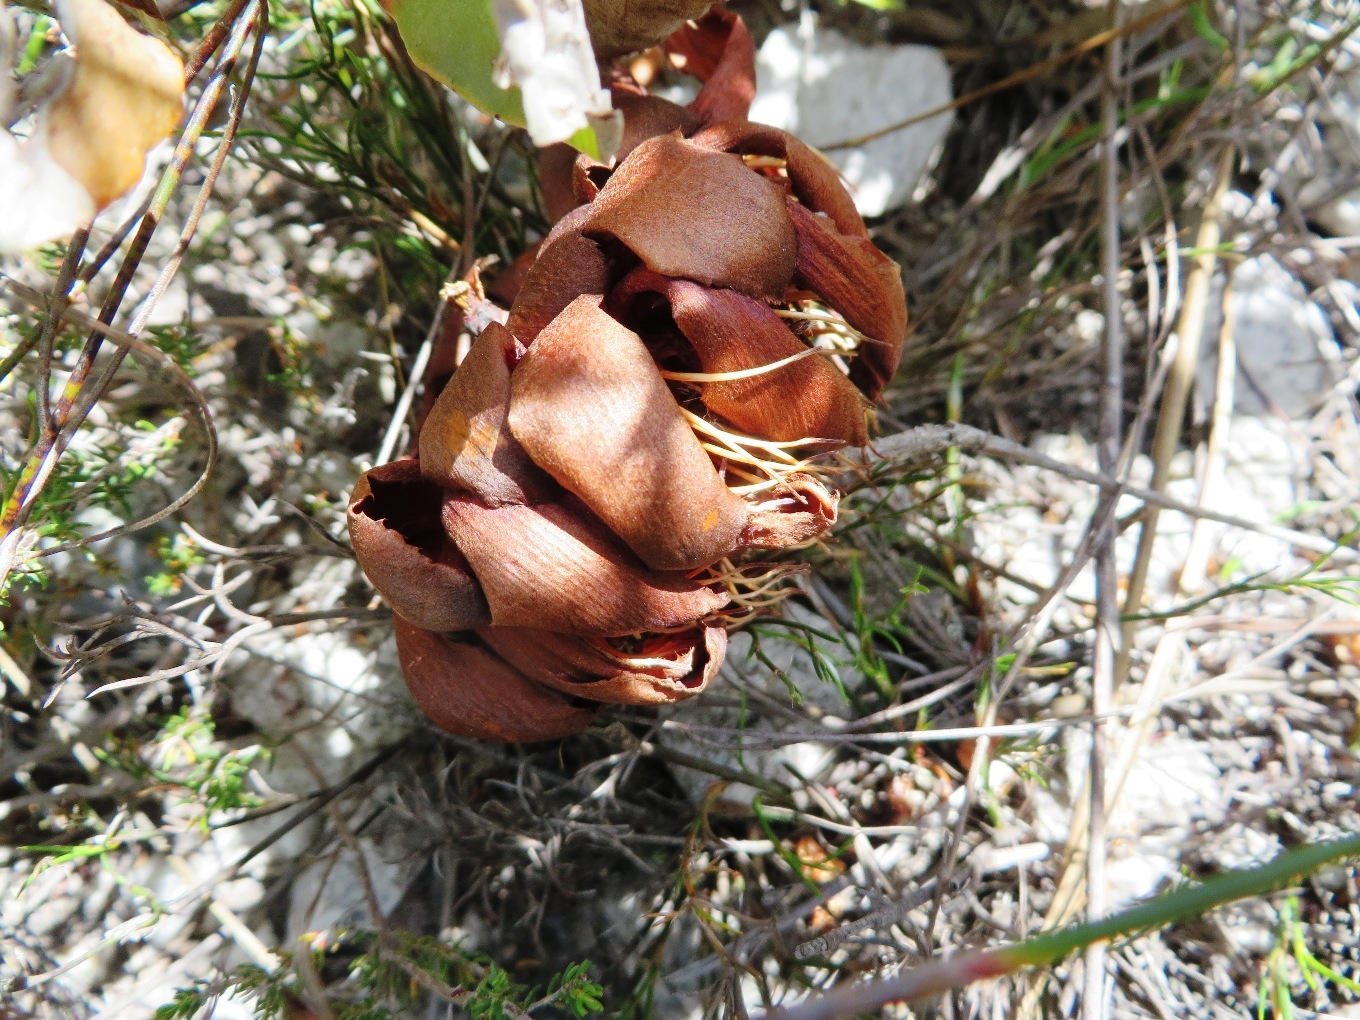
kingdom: Plantae
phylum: Tracheophyta
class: Magnoliopsida
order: Proteales
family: Proteaceae
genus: Protea
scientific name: Protea amplexicaulis
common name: Clasping-leaf sugarbush
